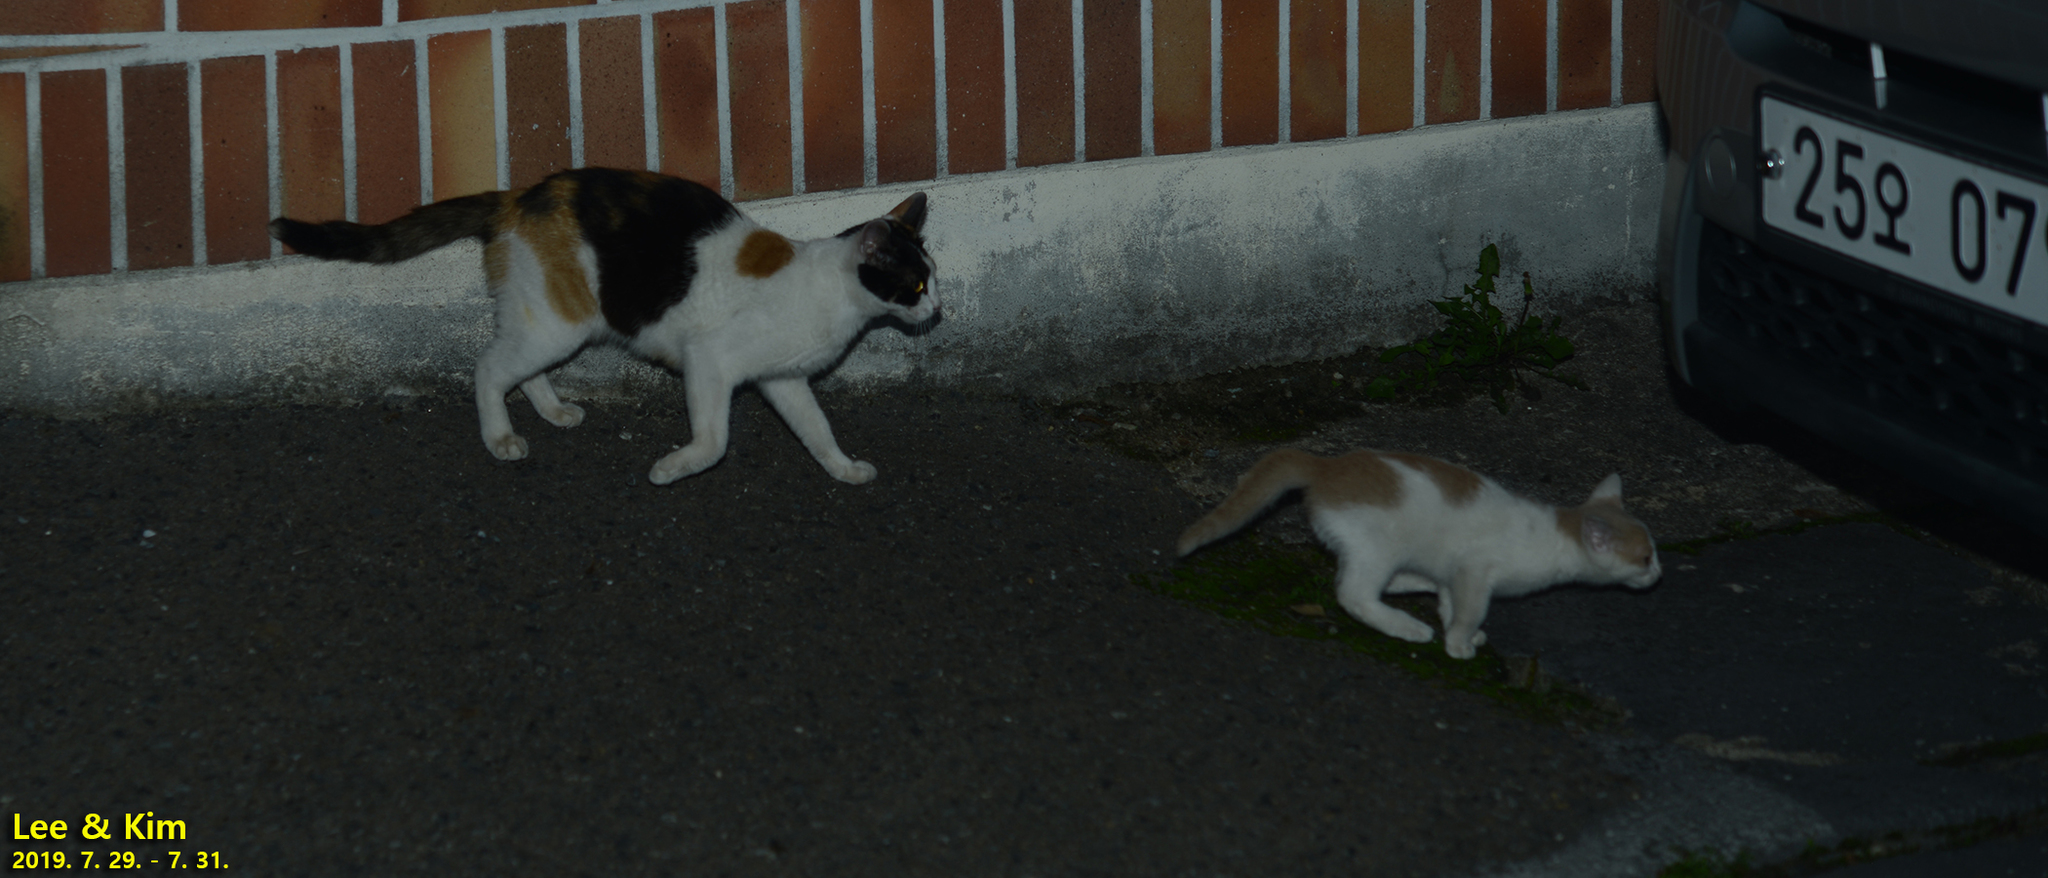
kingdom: Animalia
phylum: Chordata
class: Mammalia
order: Carnivora
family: Felidae
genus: Felis
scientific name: Felis catus
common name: Domestic cat
